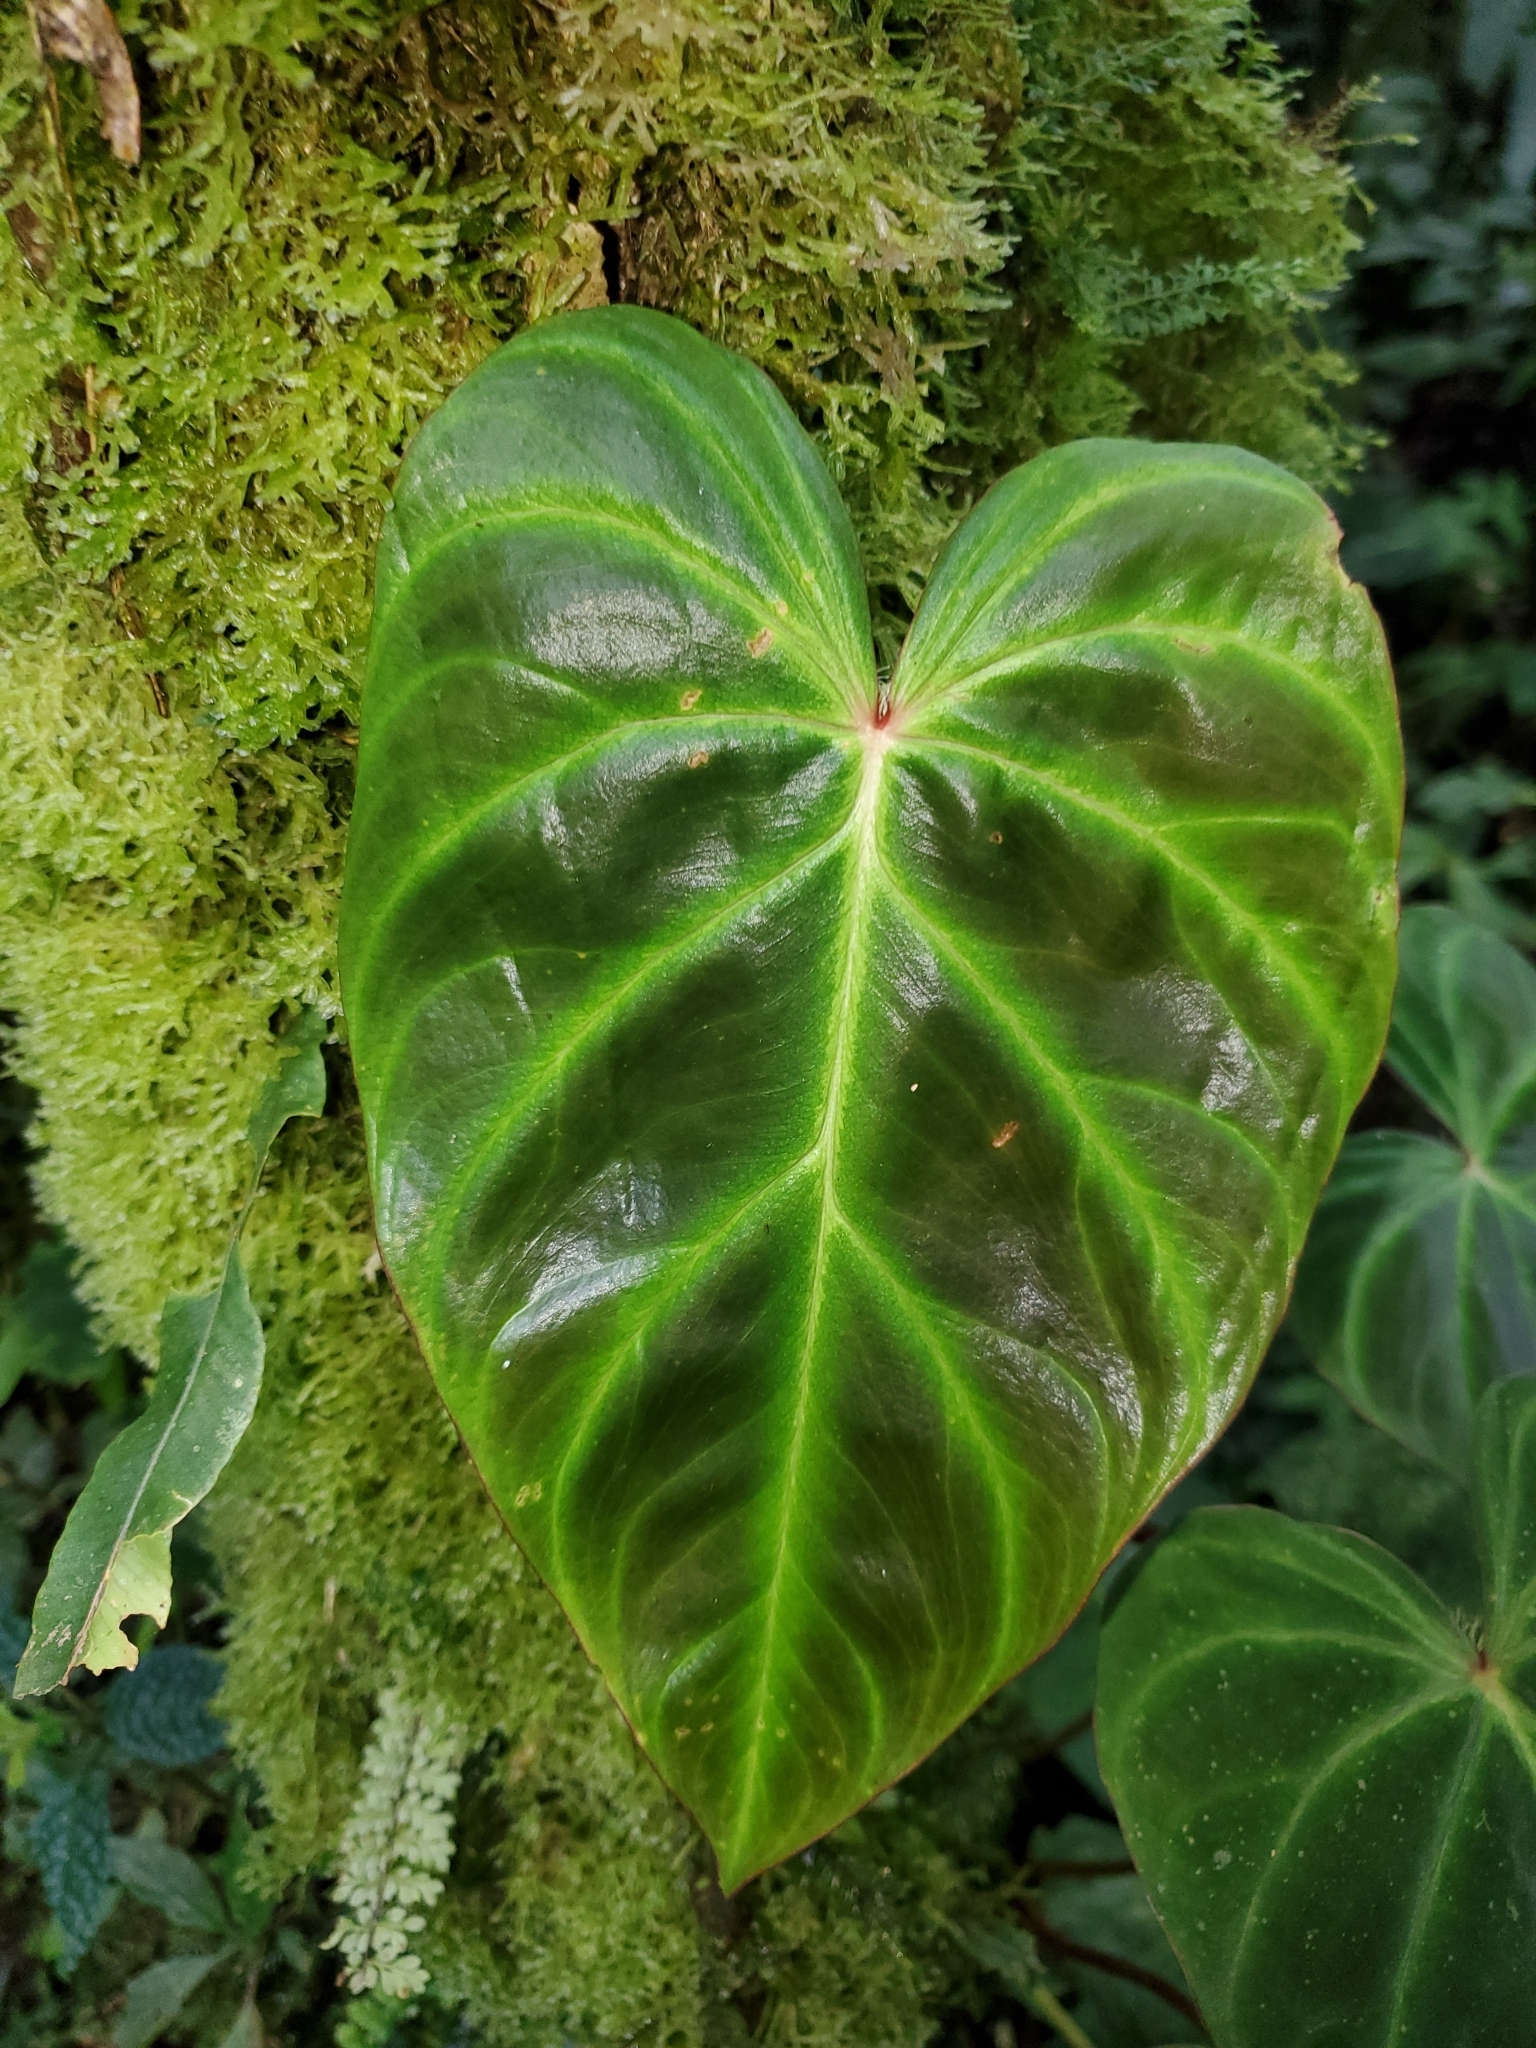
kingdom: Plantae
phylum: Tracheophyta
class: Liliopsida
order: Alismatales
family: Araceae
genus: Philodendron
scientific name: Philodendron verrucosum
